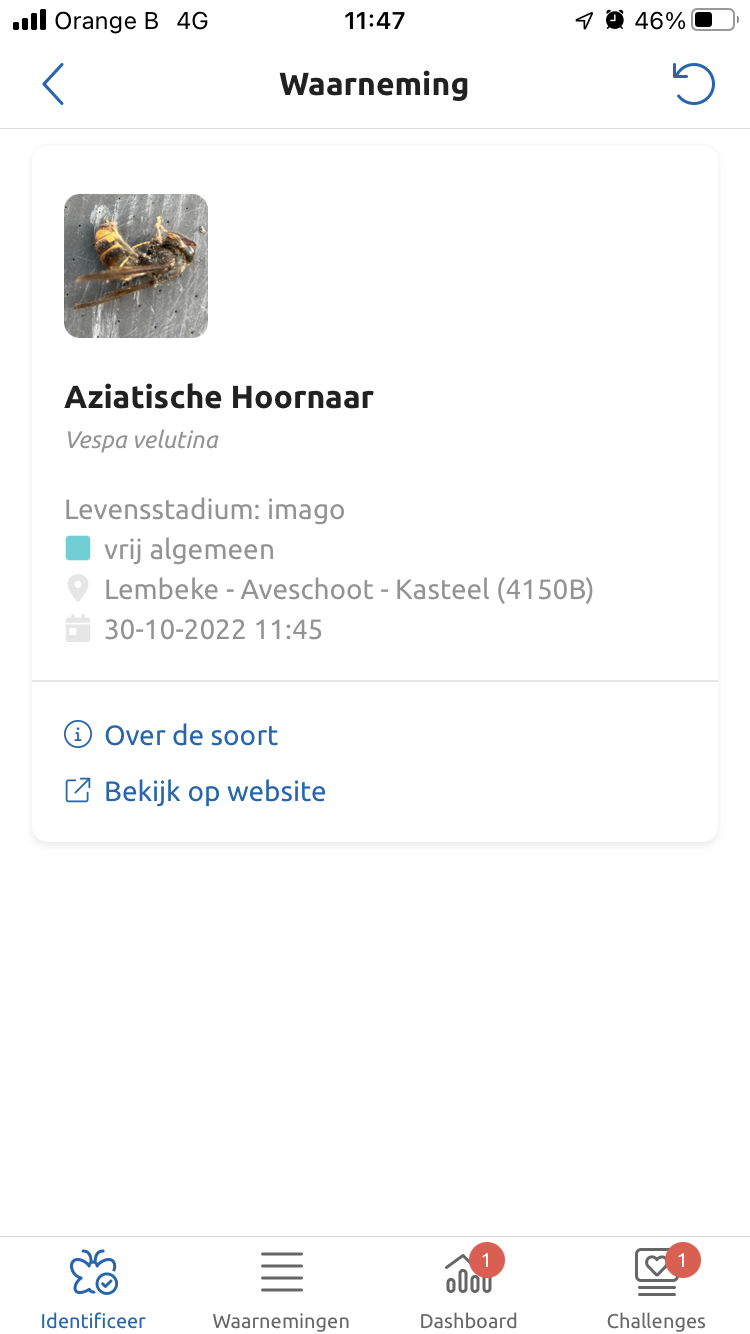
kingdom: Animalia
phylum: Arthropoda
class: Insecta
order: Hymenoptera
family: Vespidae
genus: Vespa
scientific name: Vespa velutina
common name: Asian hornet
